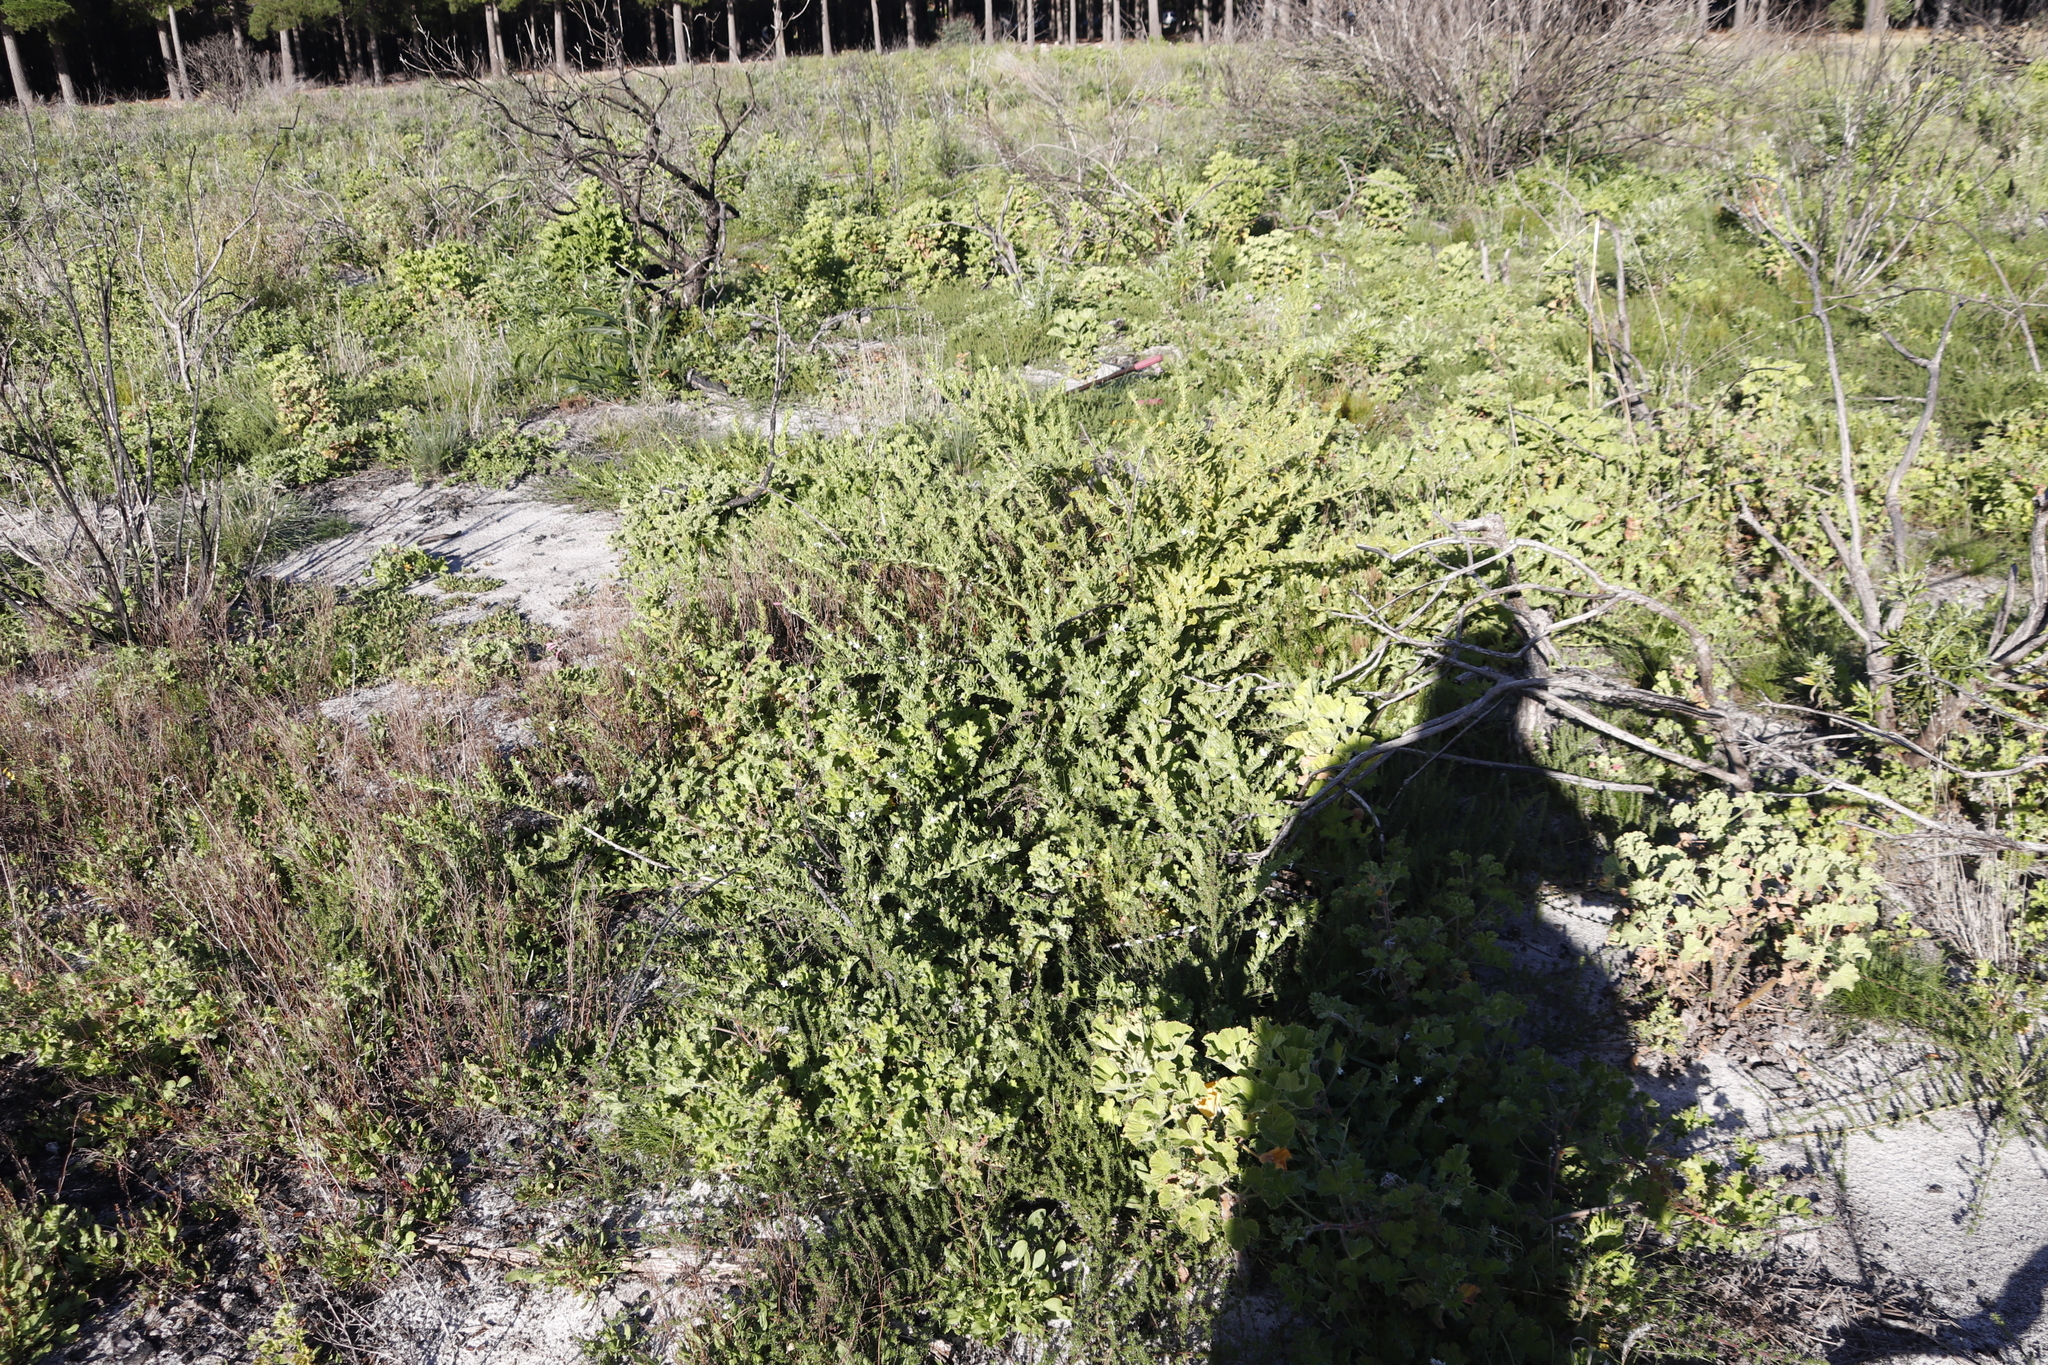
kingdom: Plantae
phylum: Tracheophyta
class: Magnoliopsida
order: Lamiales
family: Scrophulariaceae
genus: Oftia
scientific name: Oftia africana
